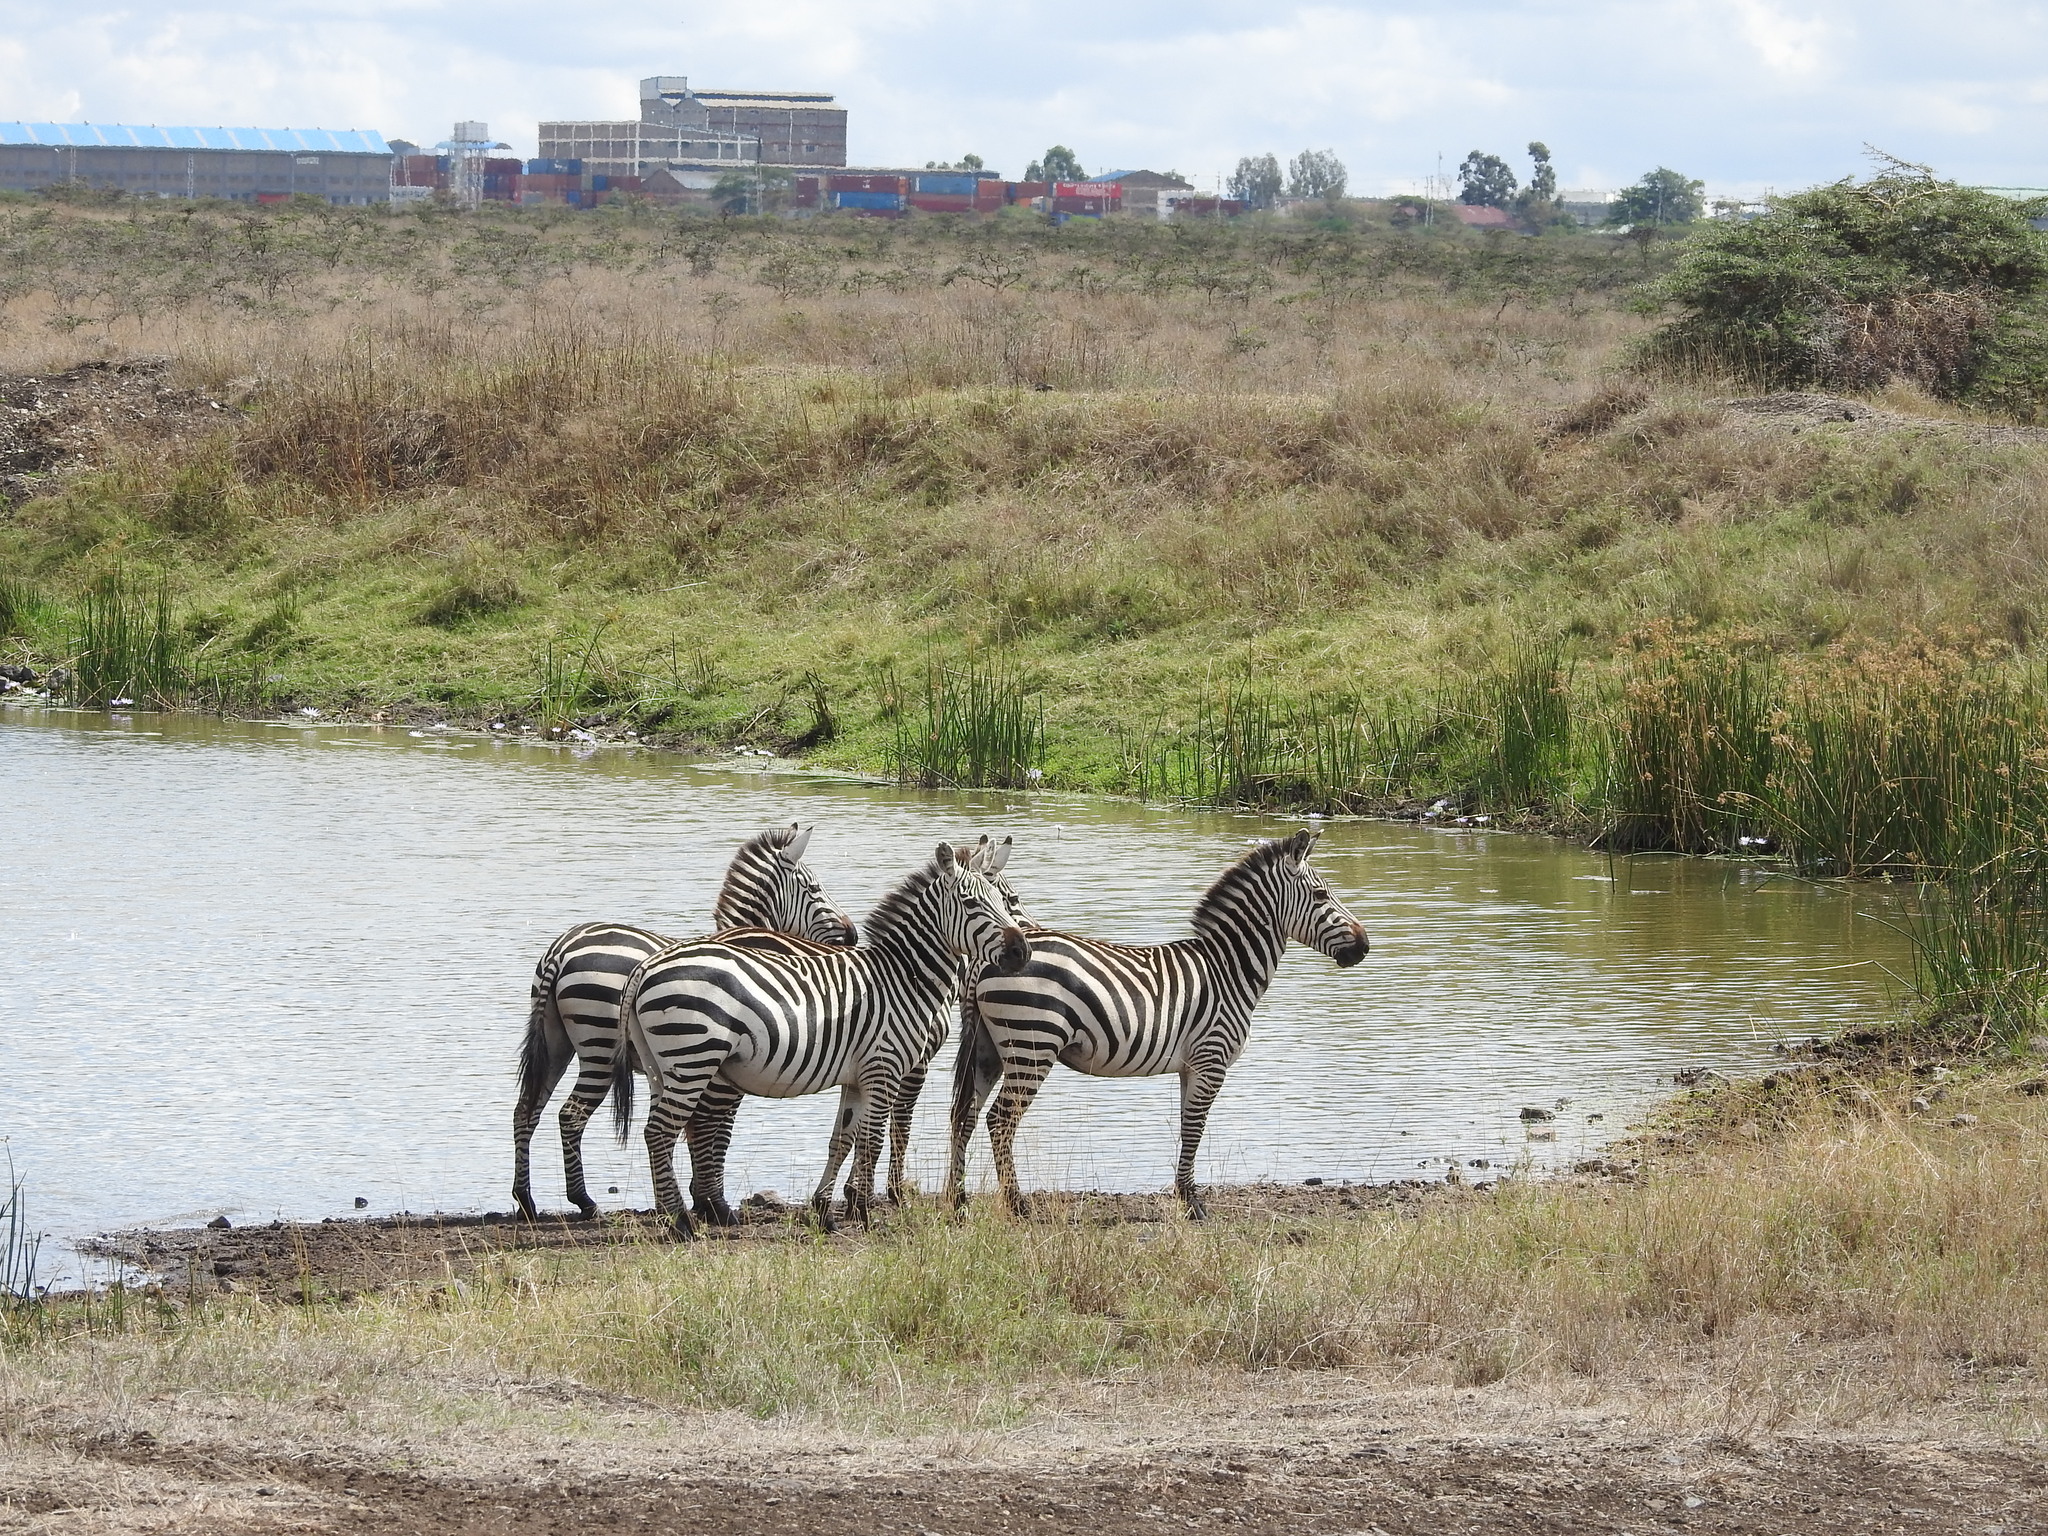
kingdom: Animalia
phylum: Chordata
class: Mammalia
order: Perissodactyla
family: Equidae
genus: Equus
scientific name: Equus quagga
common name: Plains zebra
